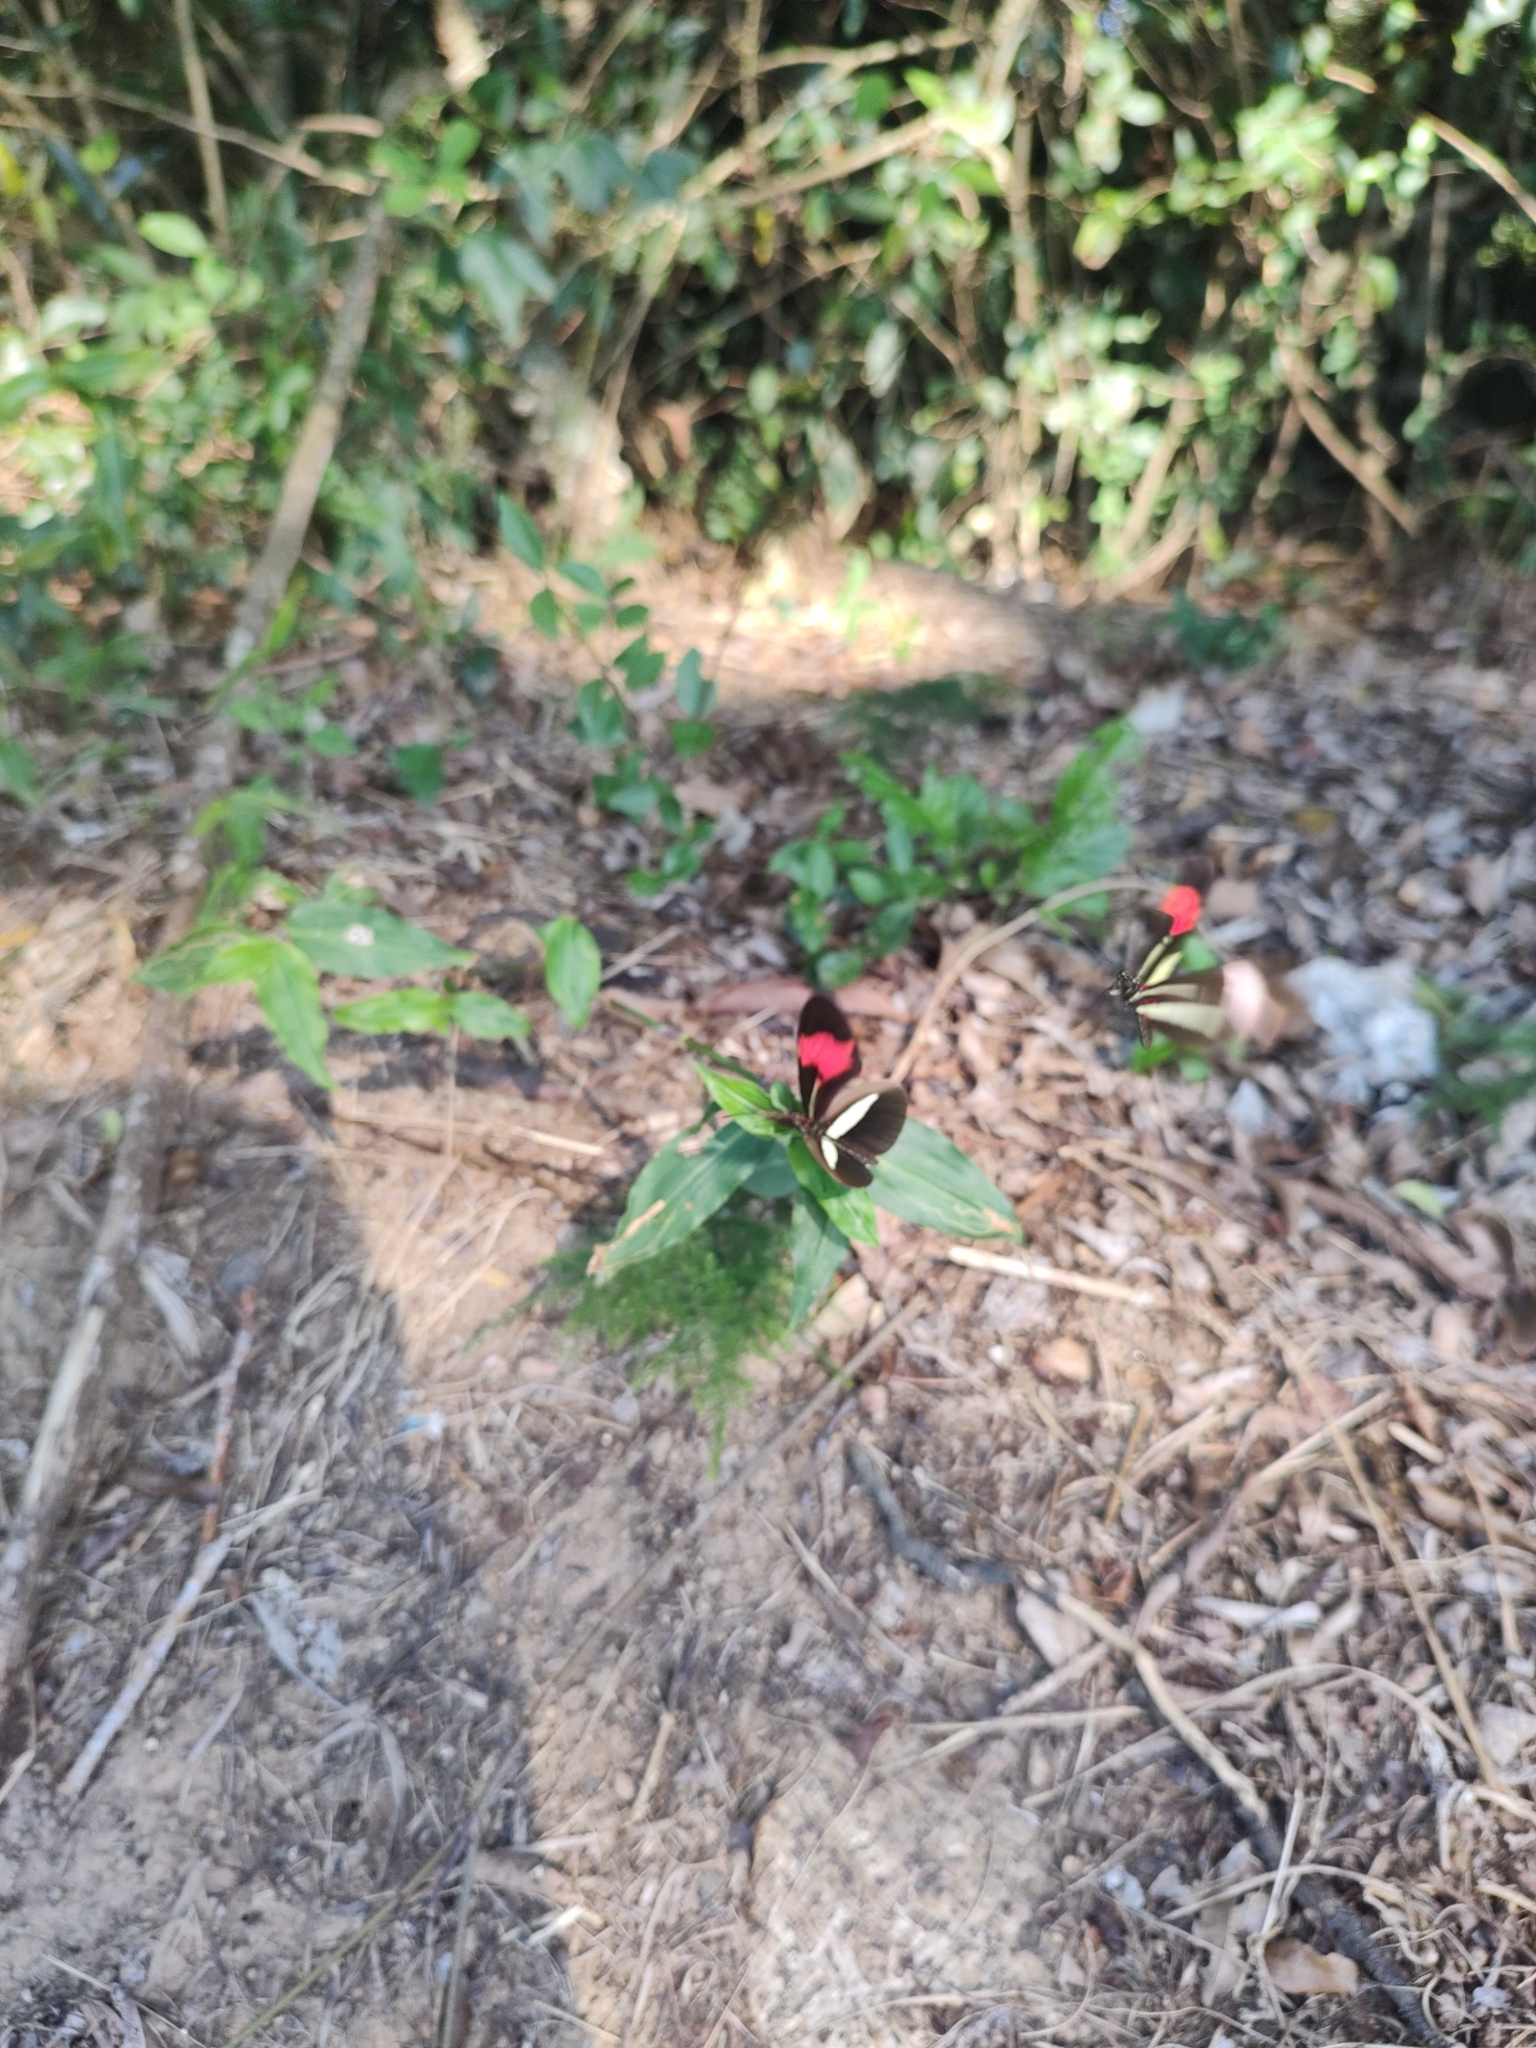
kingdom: Animalia
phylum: Arthropoda
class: Insecta
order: Lepidoptera
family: Nymphalidae
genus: Heliconius
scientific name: Heliconius erato
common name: Common patch longwing
